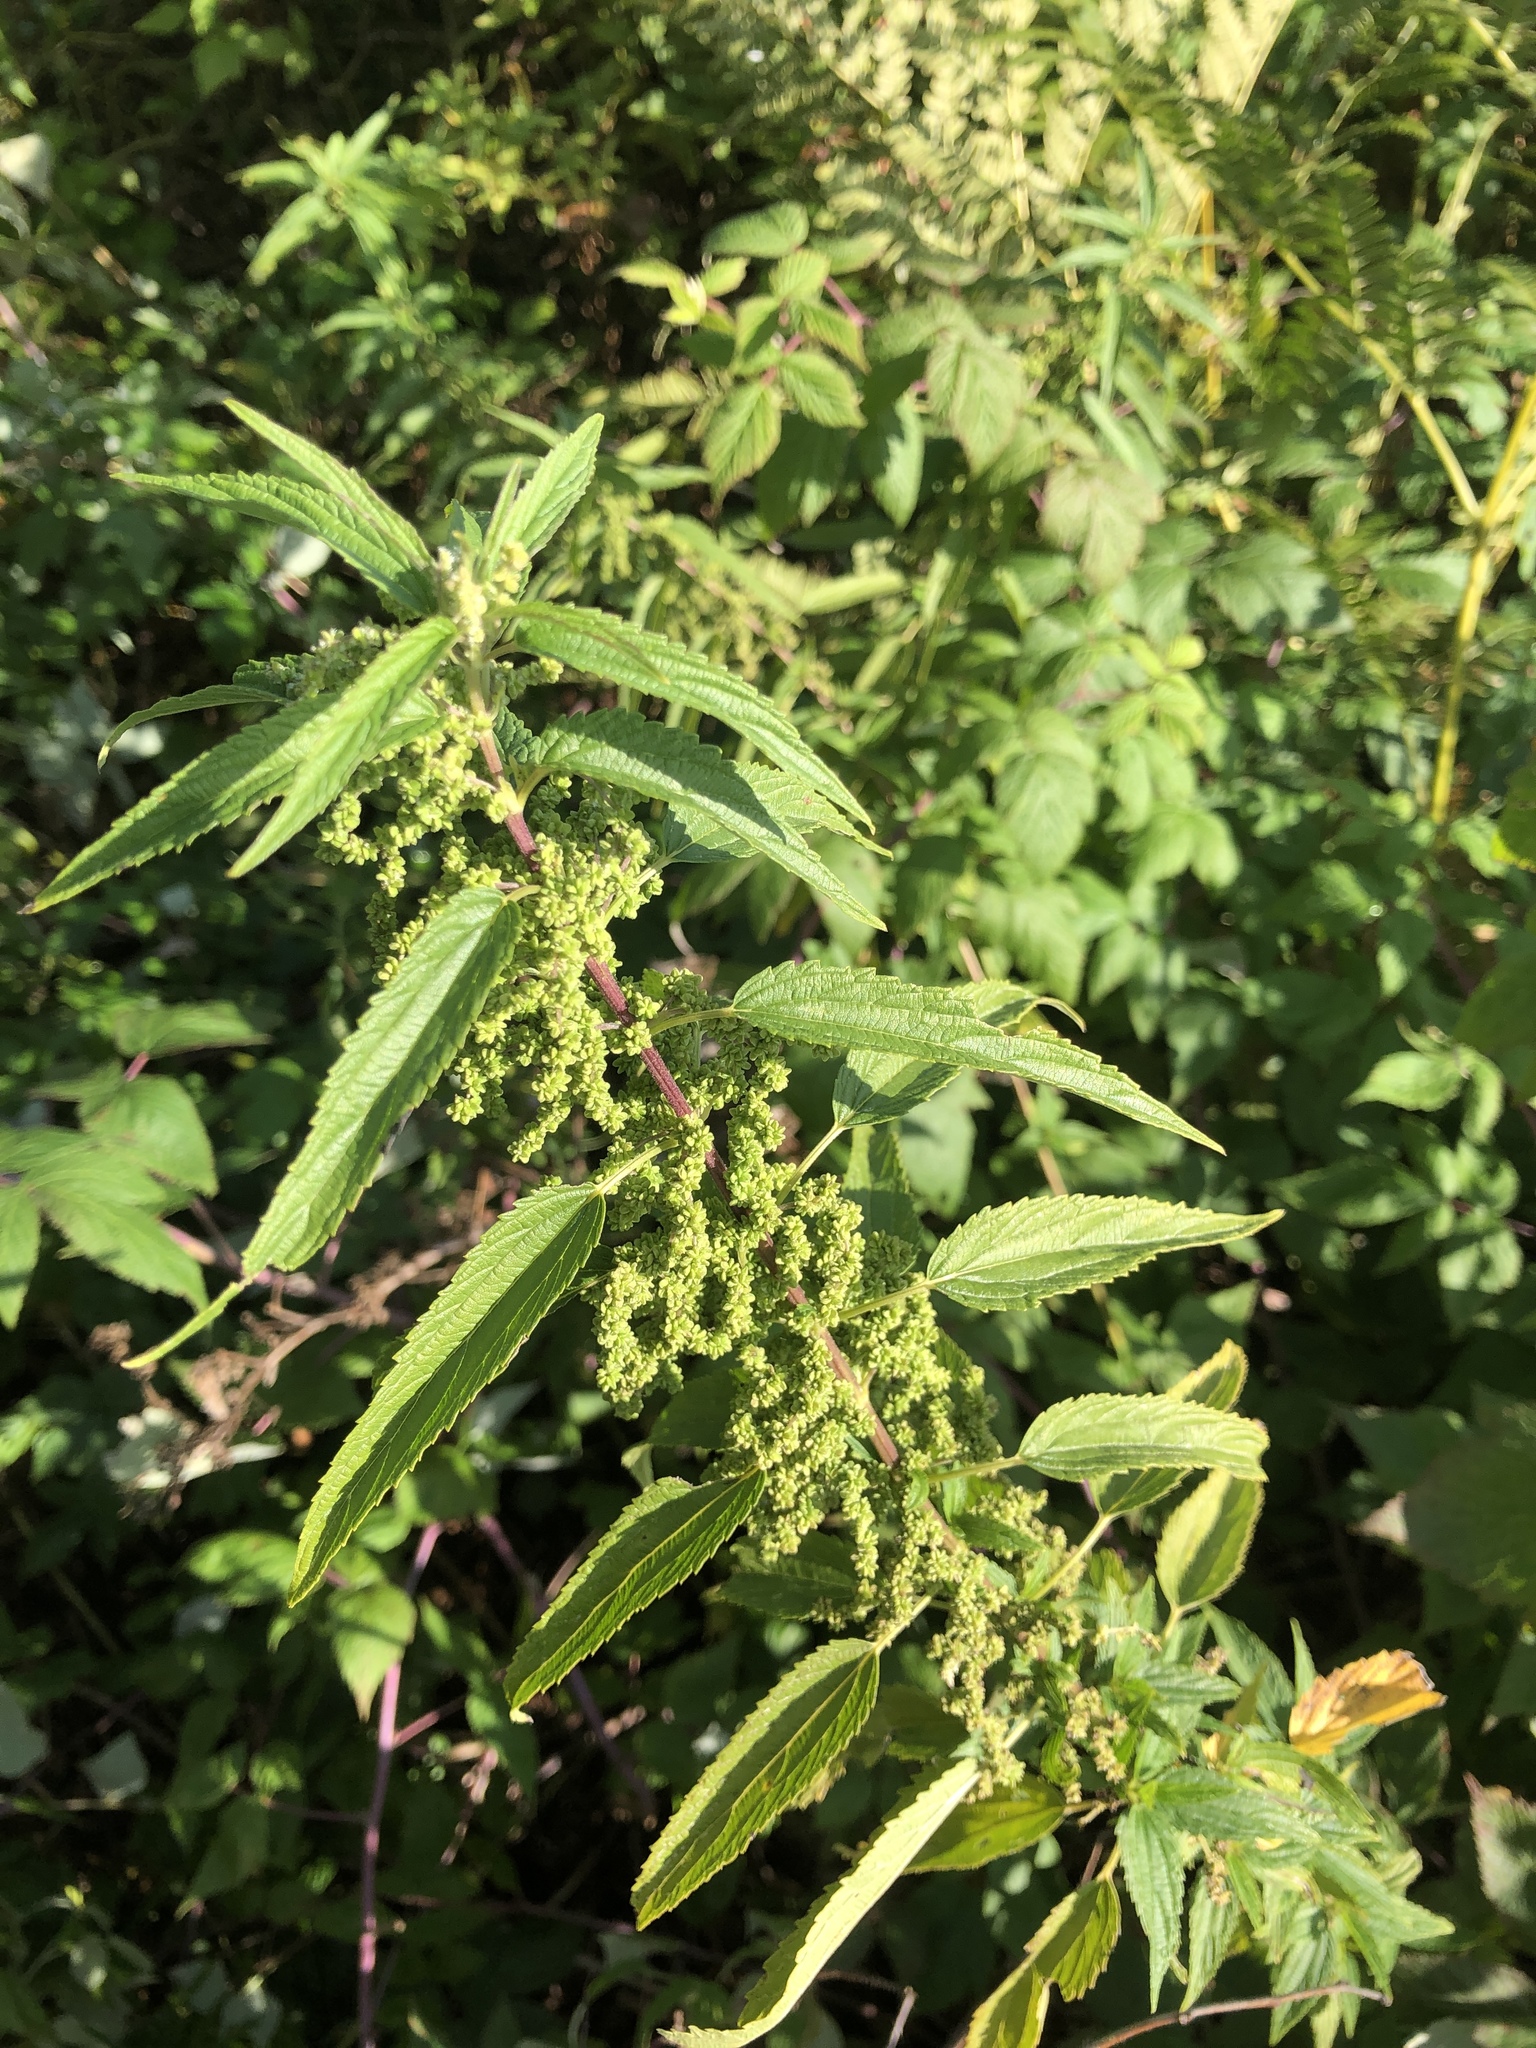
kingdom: Plantae
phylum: Tracheophyta
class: Magnoliopsida
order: Rosales
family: Urticaceae
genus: Urtica
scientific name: Urtica dioica
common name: Common nettle
